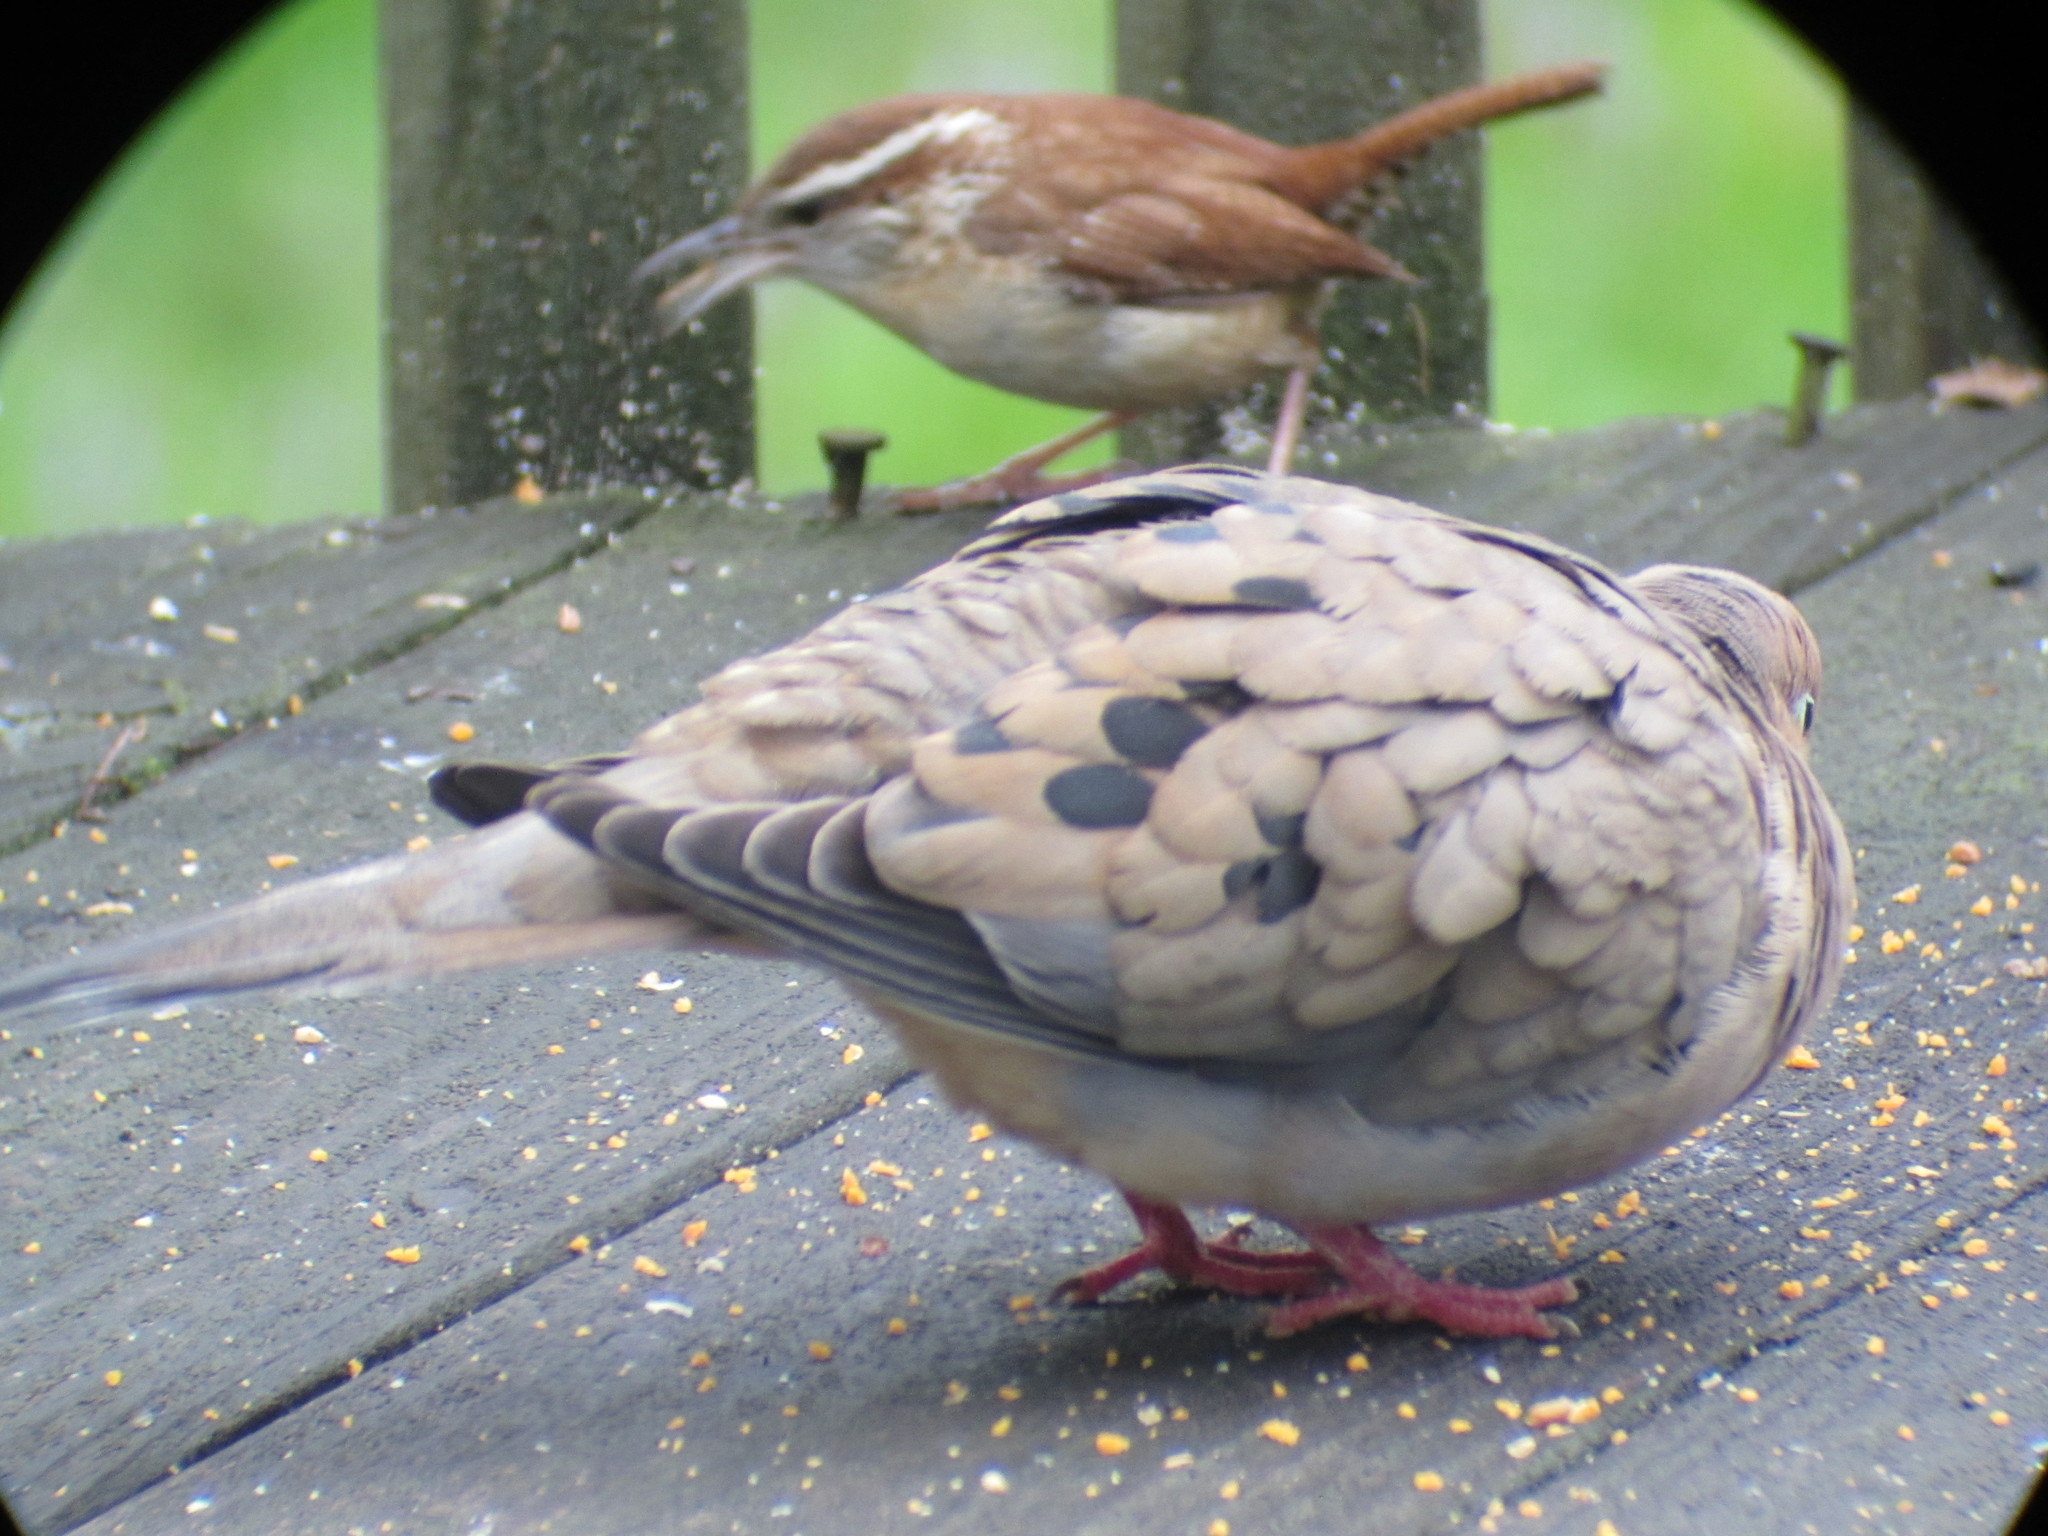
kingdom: Animalia
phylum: Chordata
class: Aves
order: Passeriformes
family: Troglodytidae
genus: Thryothorus
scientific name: Thryothorus ludovicianus
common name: Carolina wren
